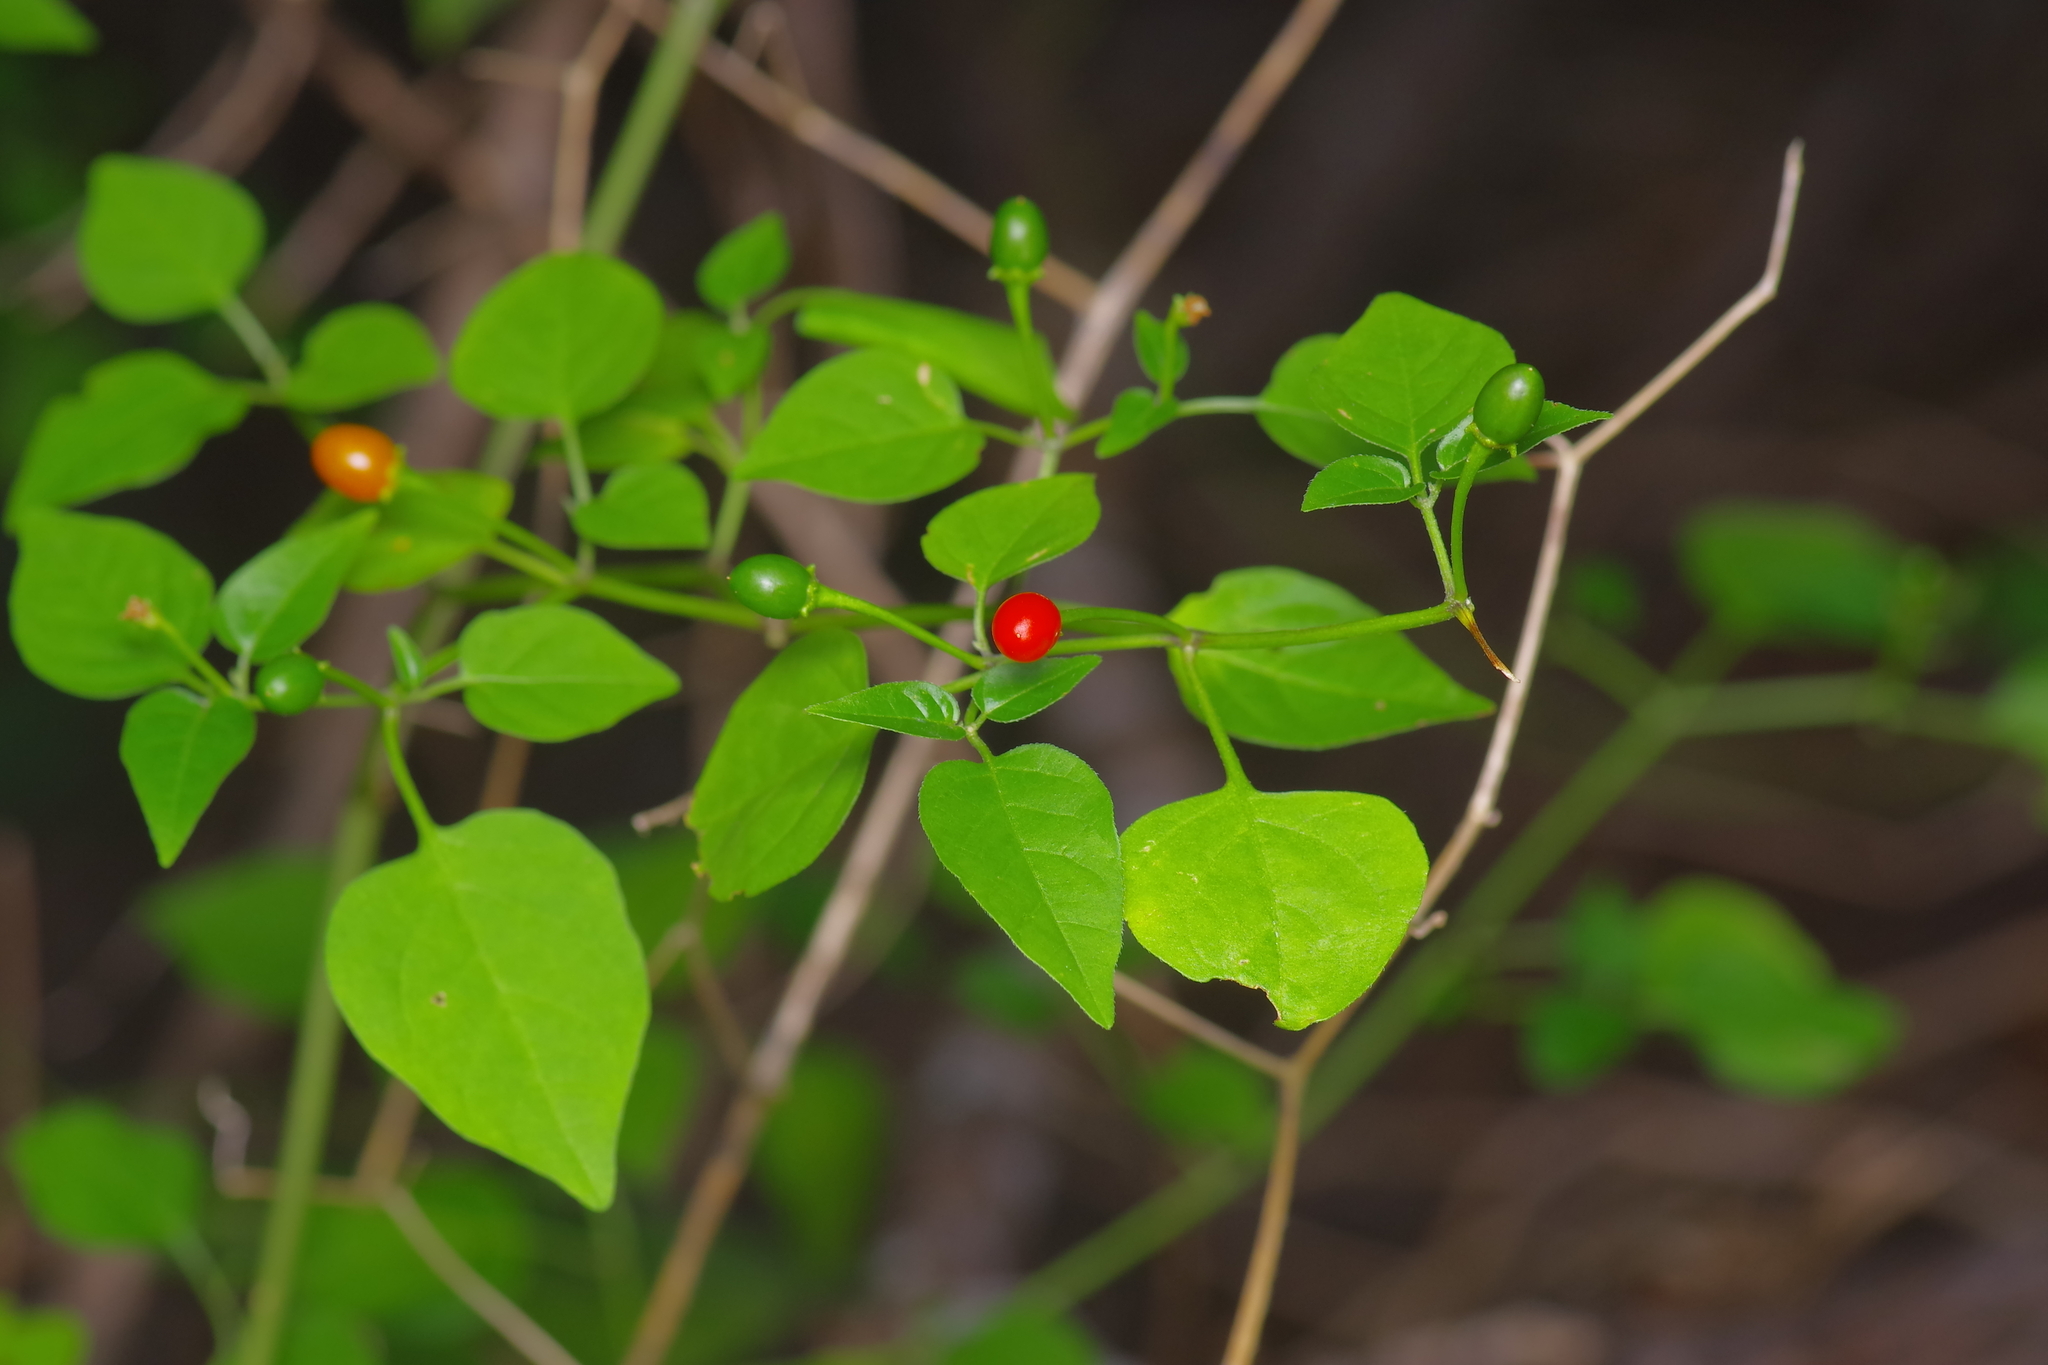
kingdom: Plantae
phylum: Tracheophyta
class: Magnoliopsida
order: Solanales
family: Solanaceae
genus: Capsicum
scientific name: Capsicum annuum
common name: Sweet pepper
